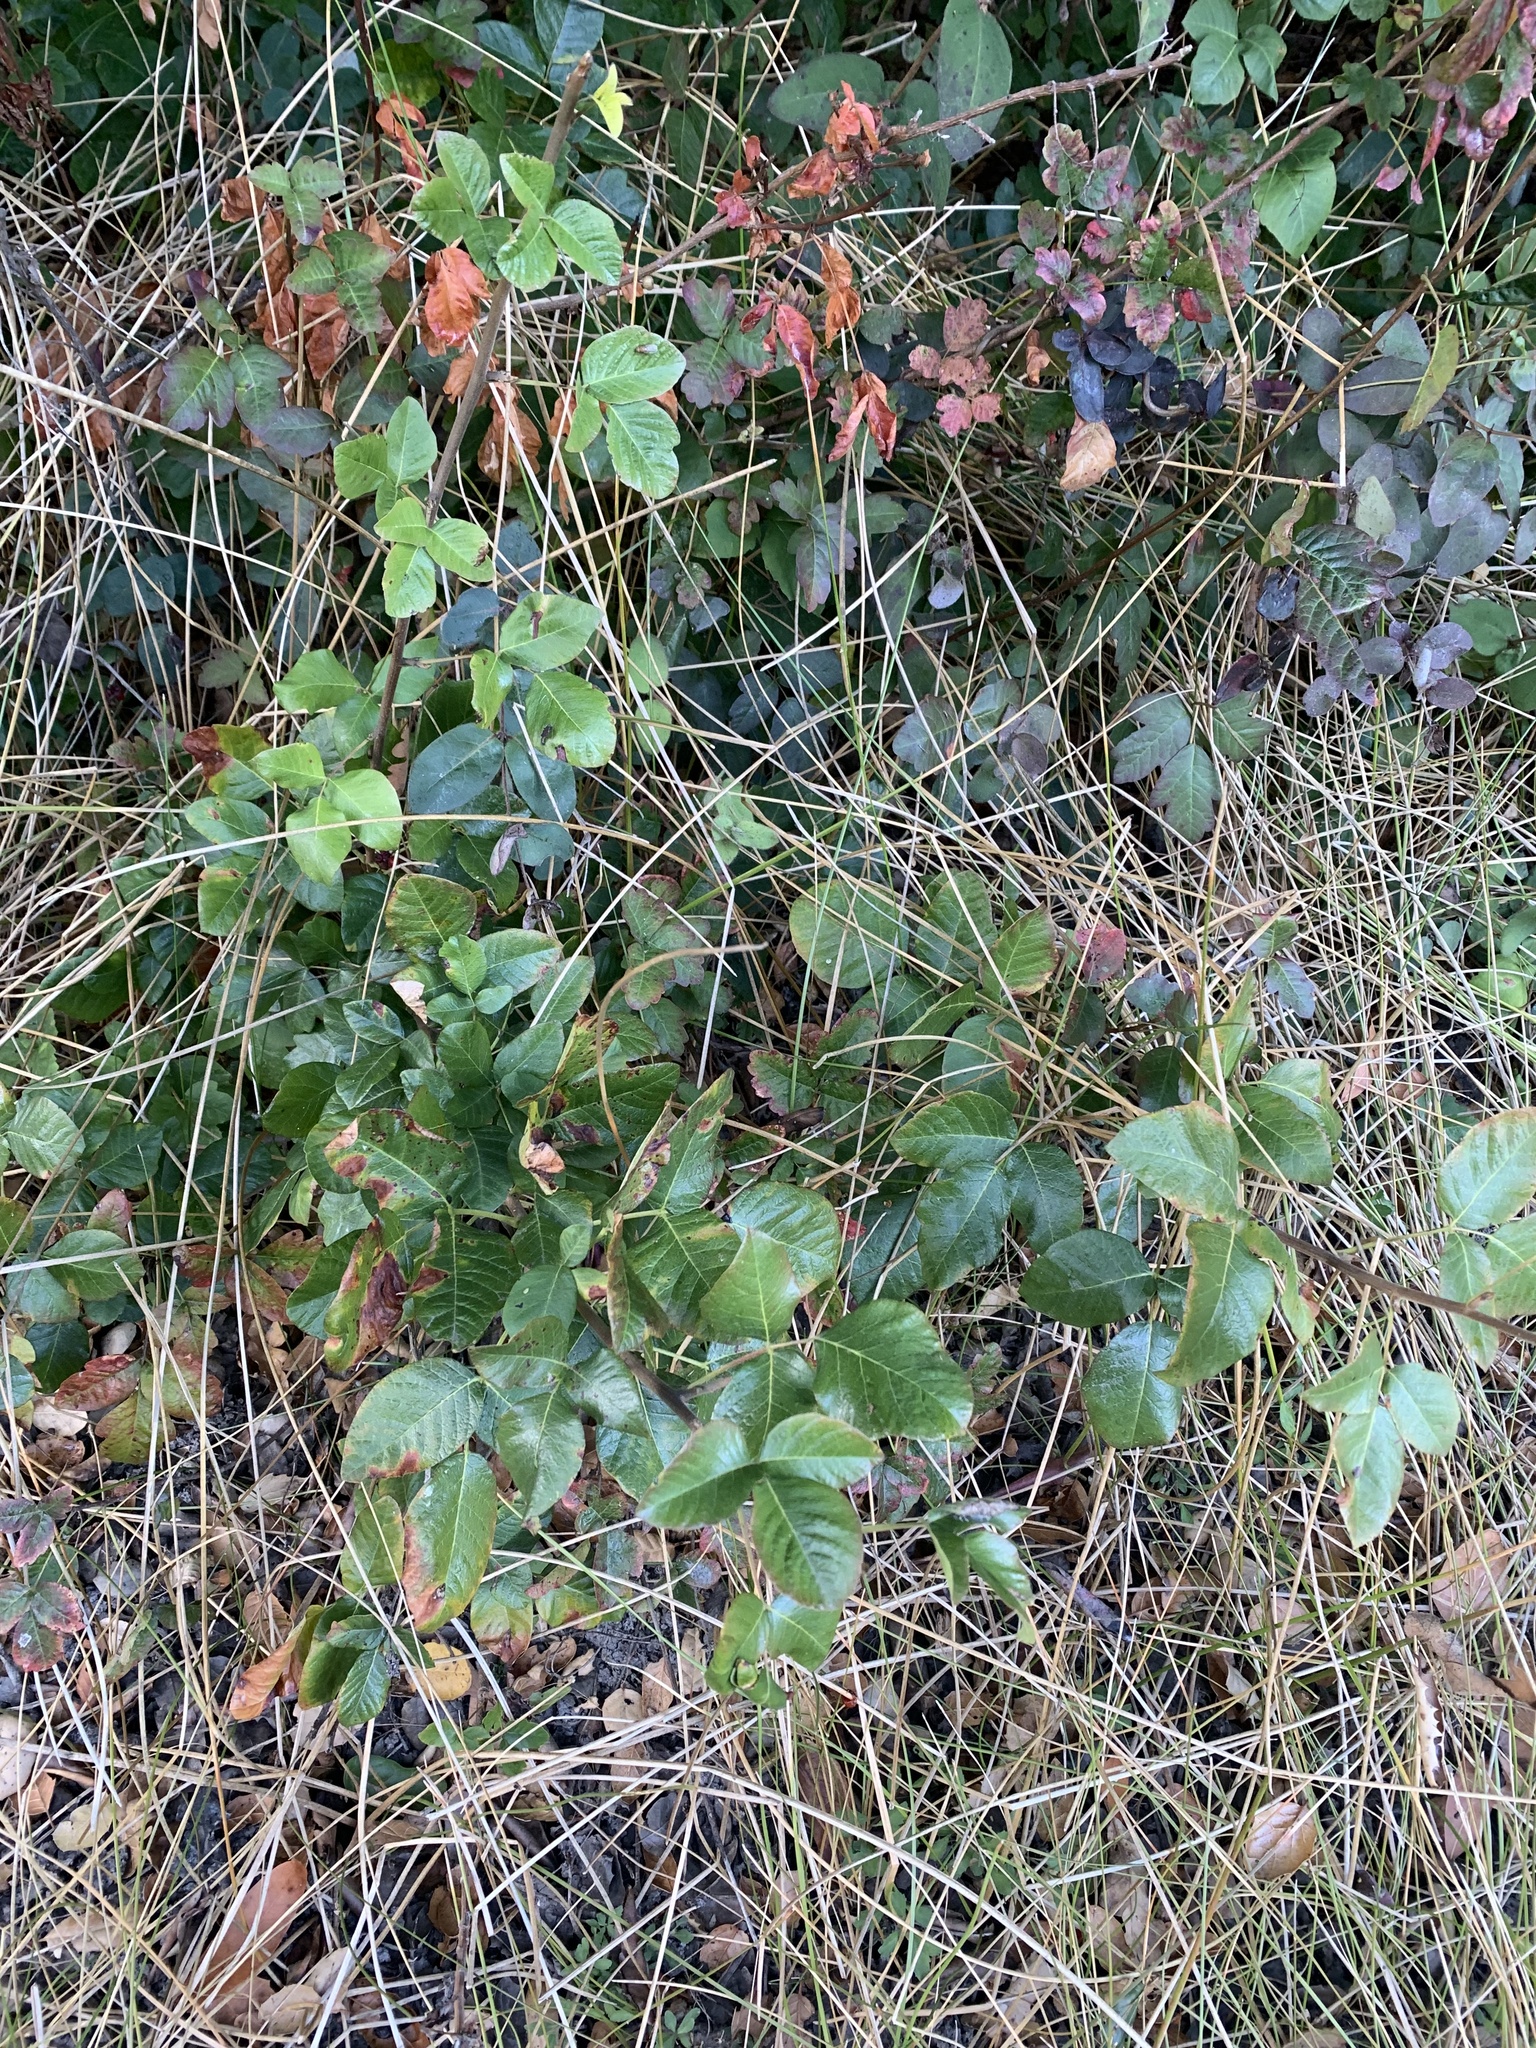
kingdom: Plantae
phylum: Tracheophyta
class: Magnoliopsida
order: Sapindales
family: Anacardiaceae
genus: Toxicodendron
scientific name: Toxicodendron diversilobum
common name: Pacific poison-oak
